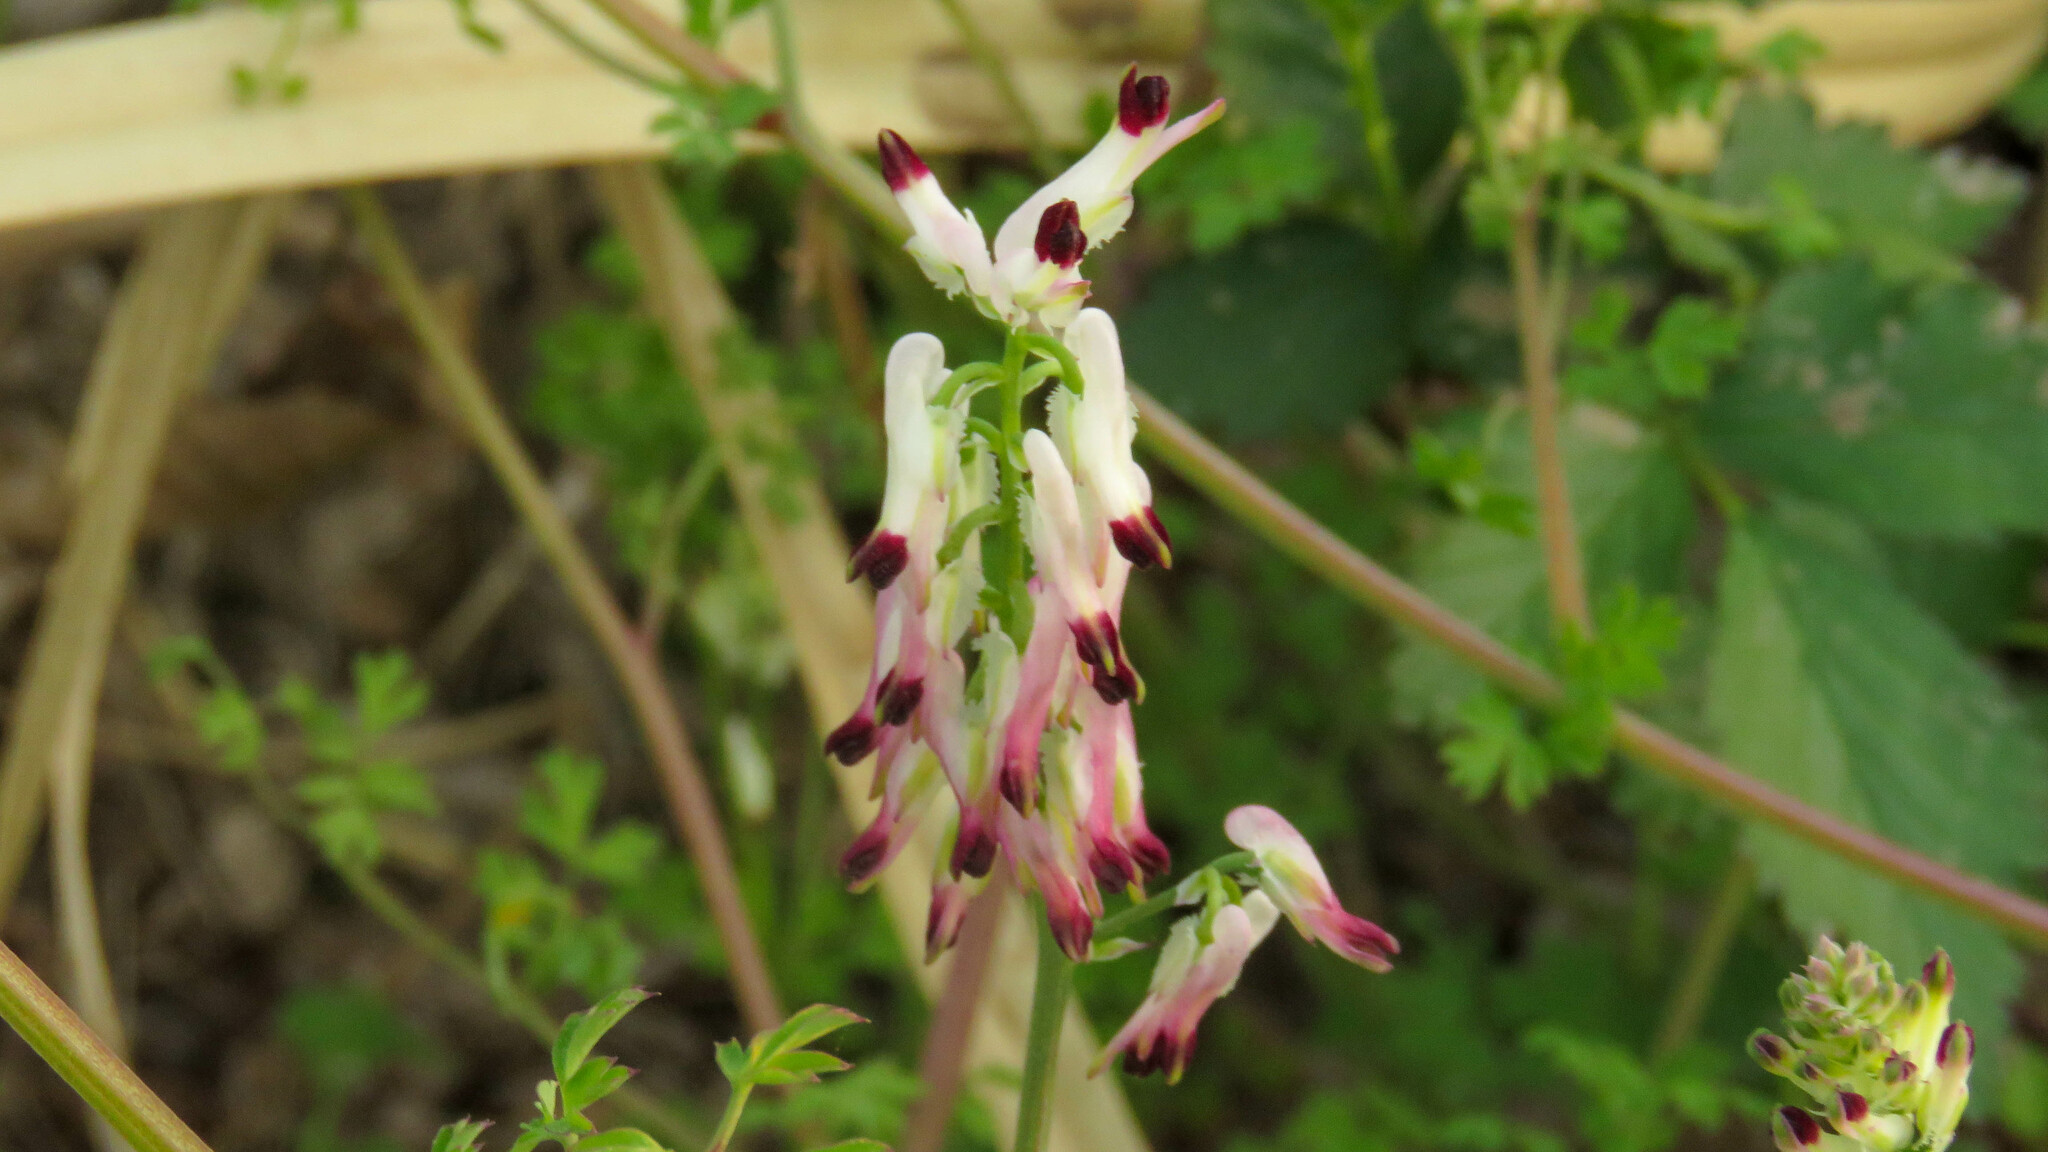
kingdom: Plantae
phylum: Tracheophyta
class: Magnoliopsida
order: Ranunculales
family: Papaveraceae
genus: Fumaria
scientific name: Fumaria capreolata
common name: White ramping-fumitory
